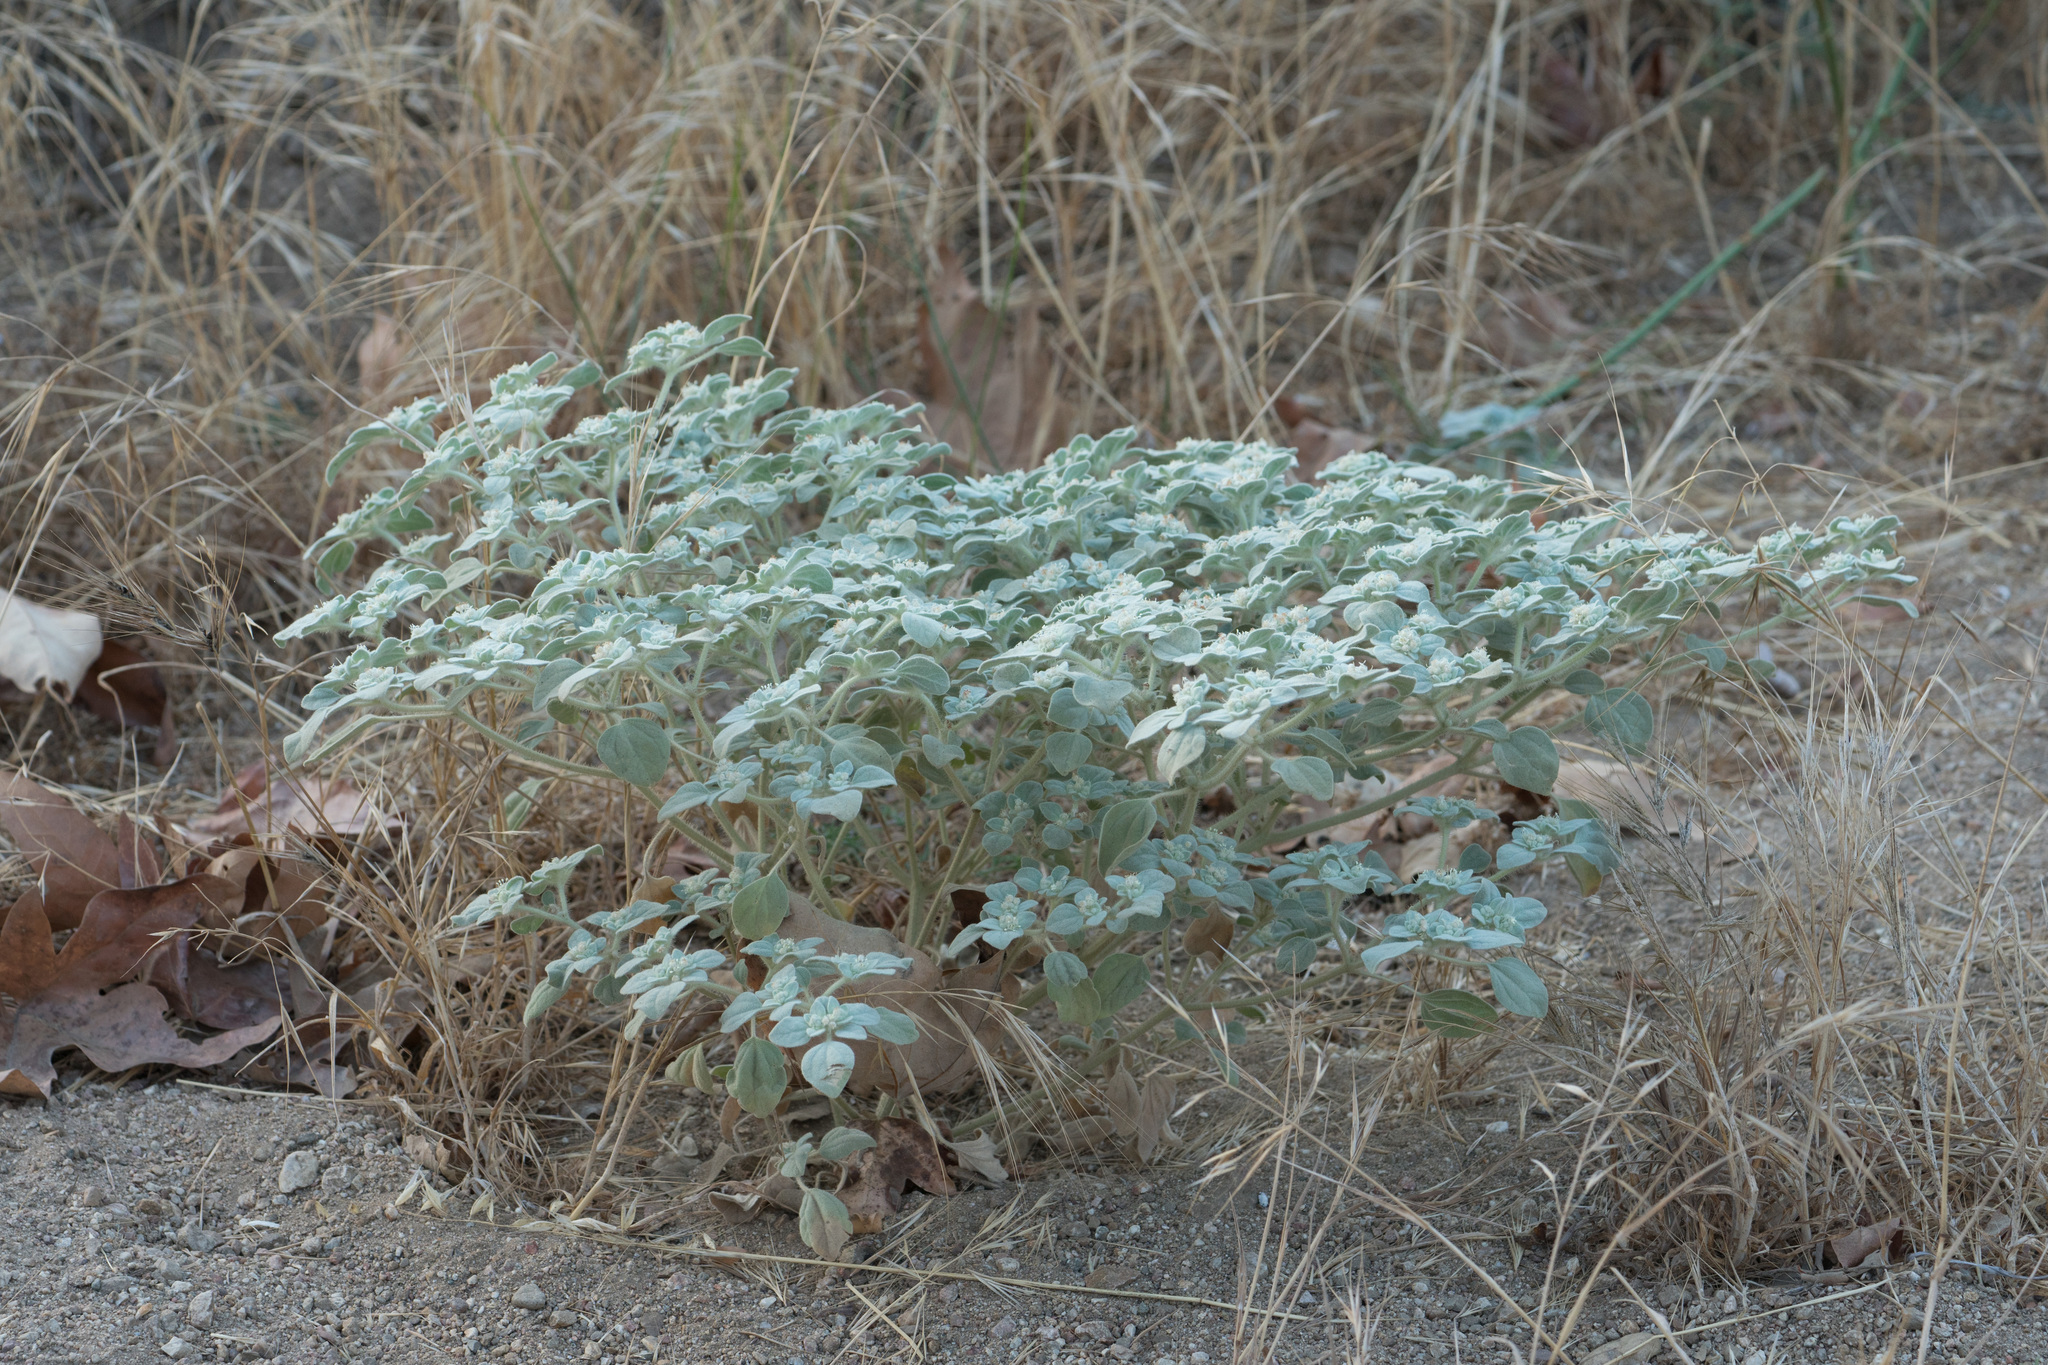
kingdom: Plantae
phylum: Tracheophyta
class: Magnoliopsida
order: Malpighiales
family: Euphorbiaceae
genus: Croton
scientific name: Croton setiger
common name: Dove weed
